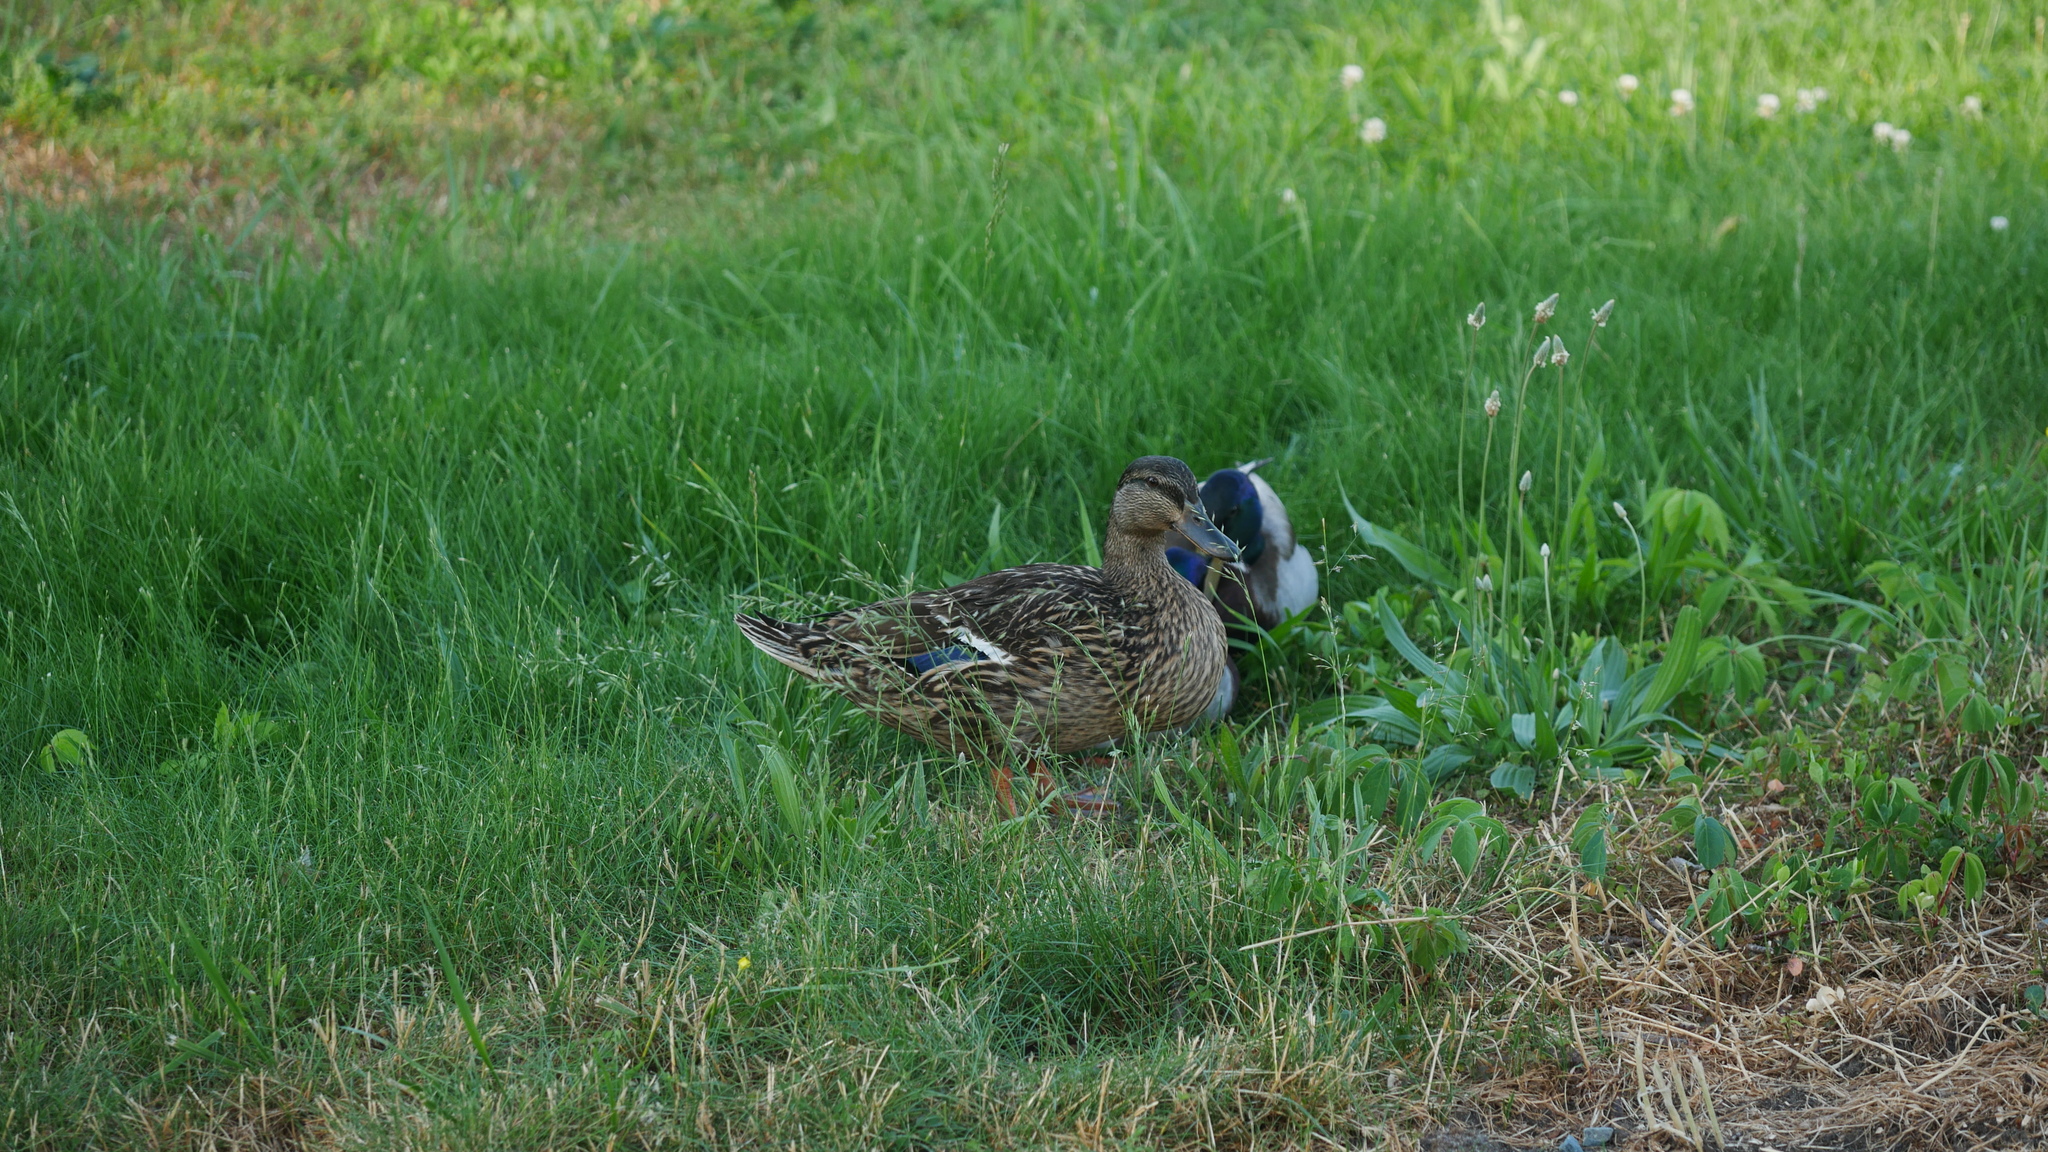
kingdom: Animalia
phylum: Chordata
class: Aves
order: Anseriformes
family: Anatidae
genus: Anas
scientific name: Anas platyrhynchos
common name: Mallard
